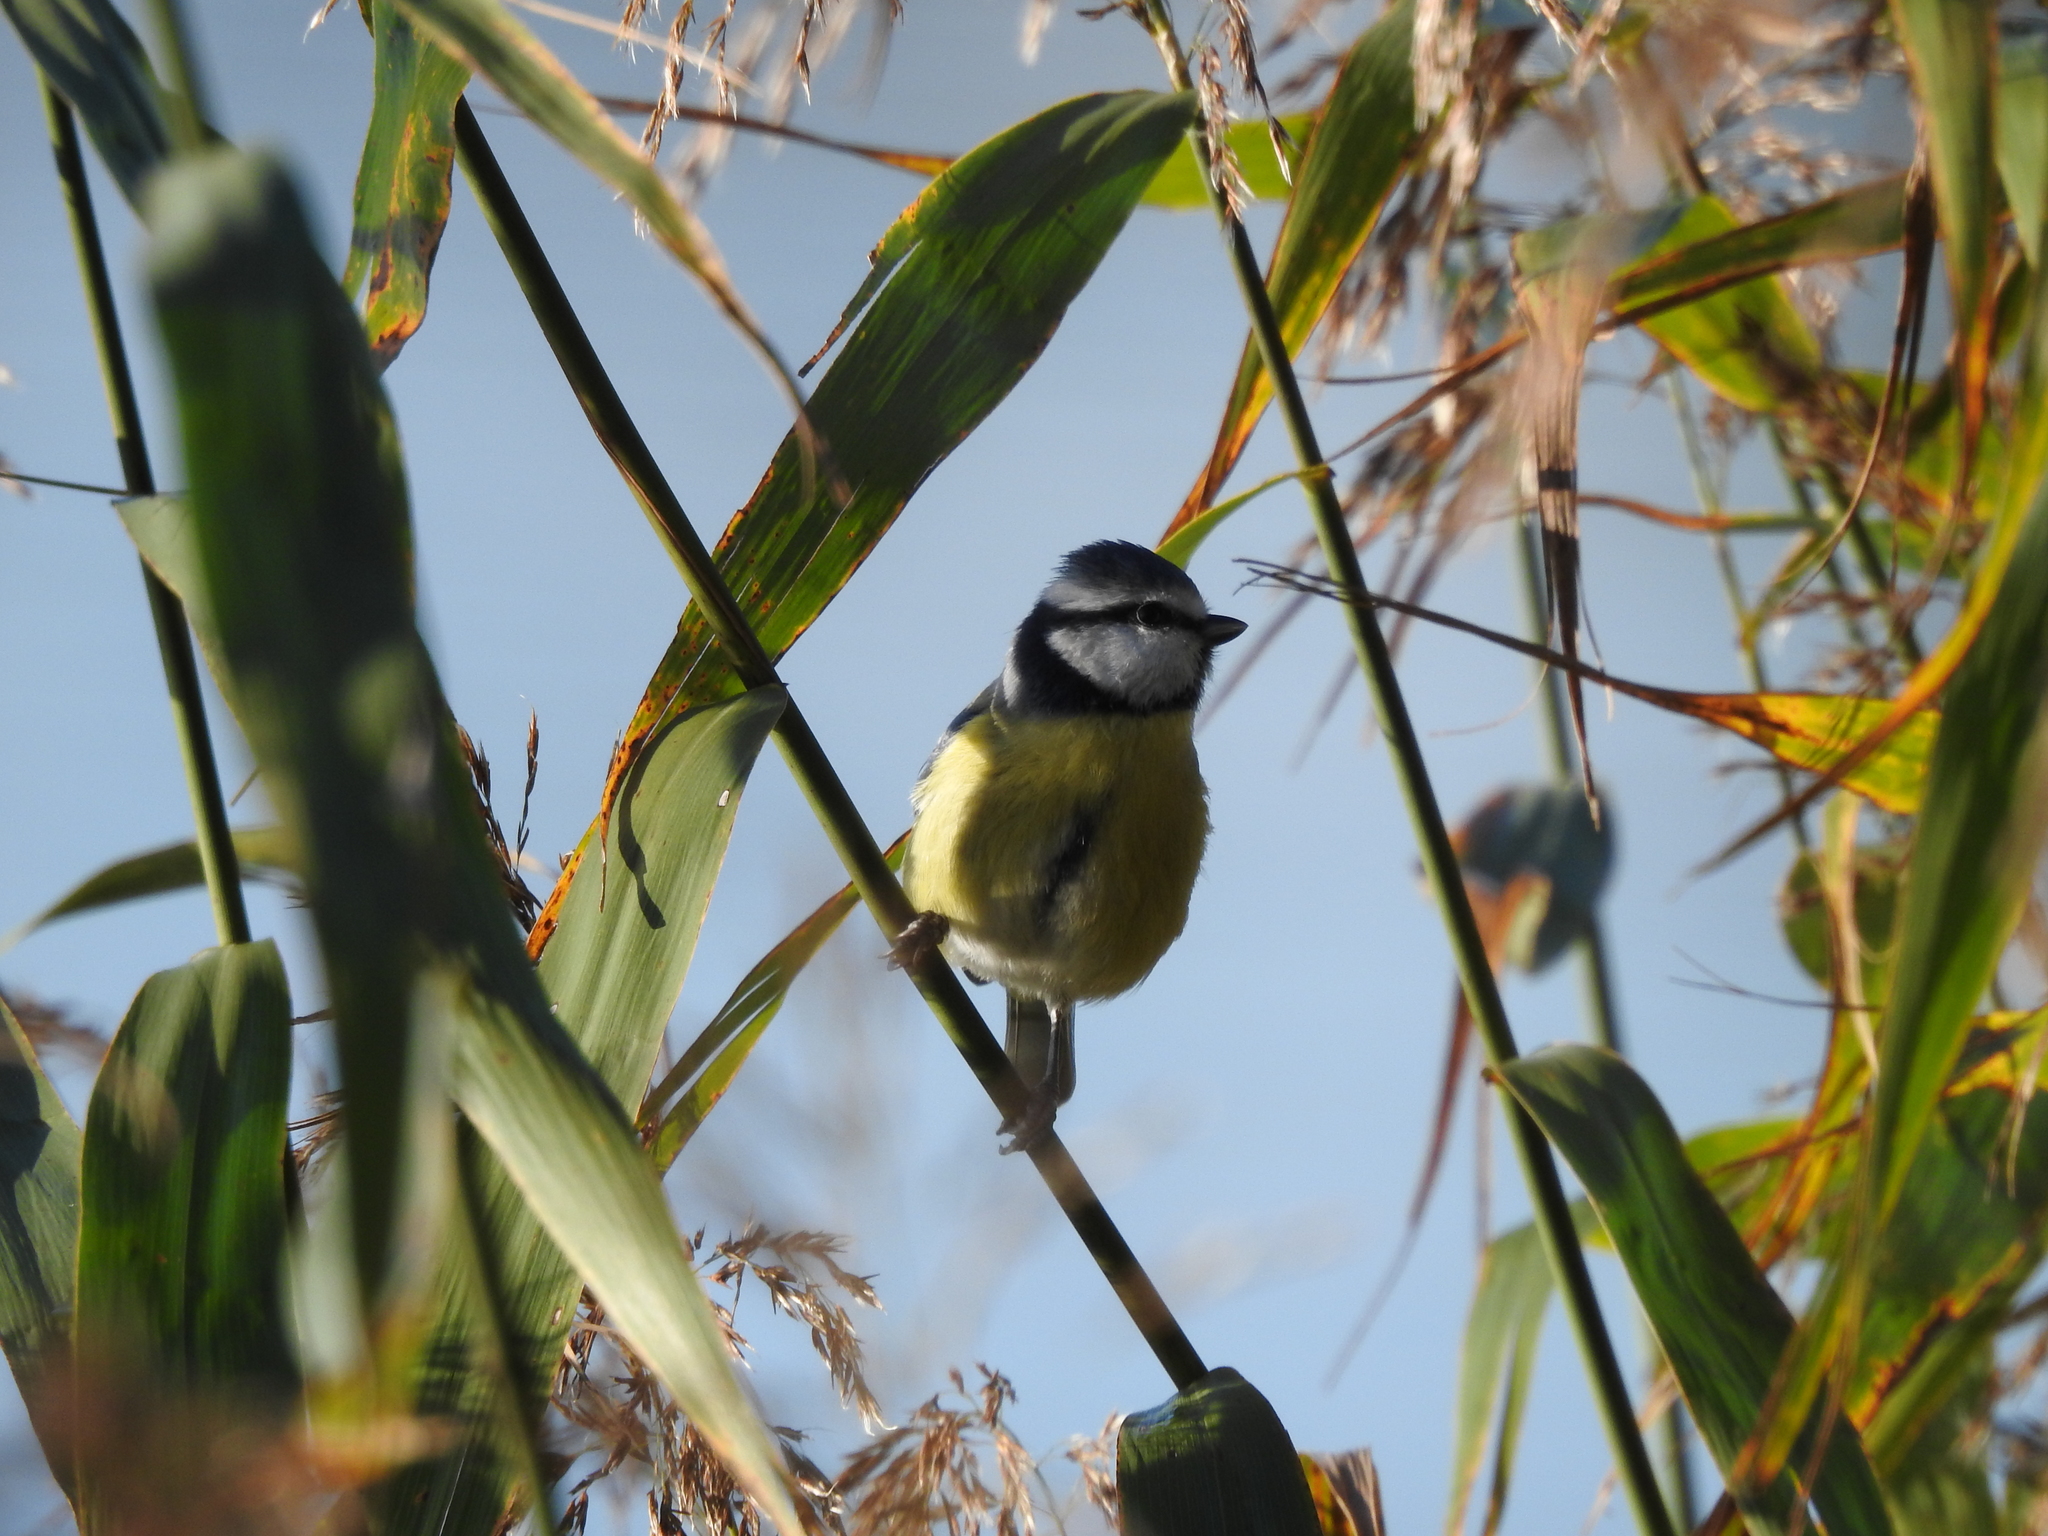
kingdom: Animalia
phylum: Chordata
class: Aves
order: Passeriformes
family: Paridae
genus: Cyanistes
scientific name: Cyanistes caeruleus
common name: Eurasian blue tit
